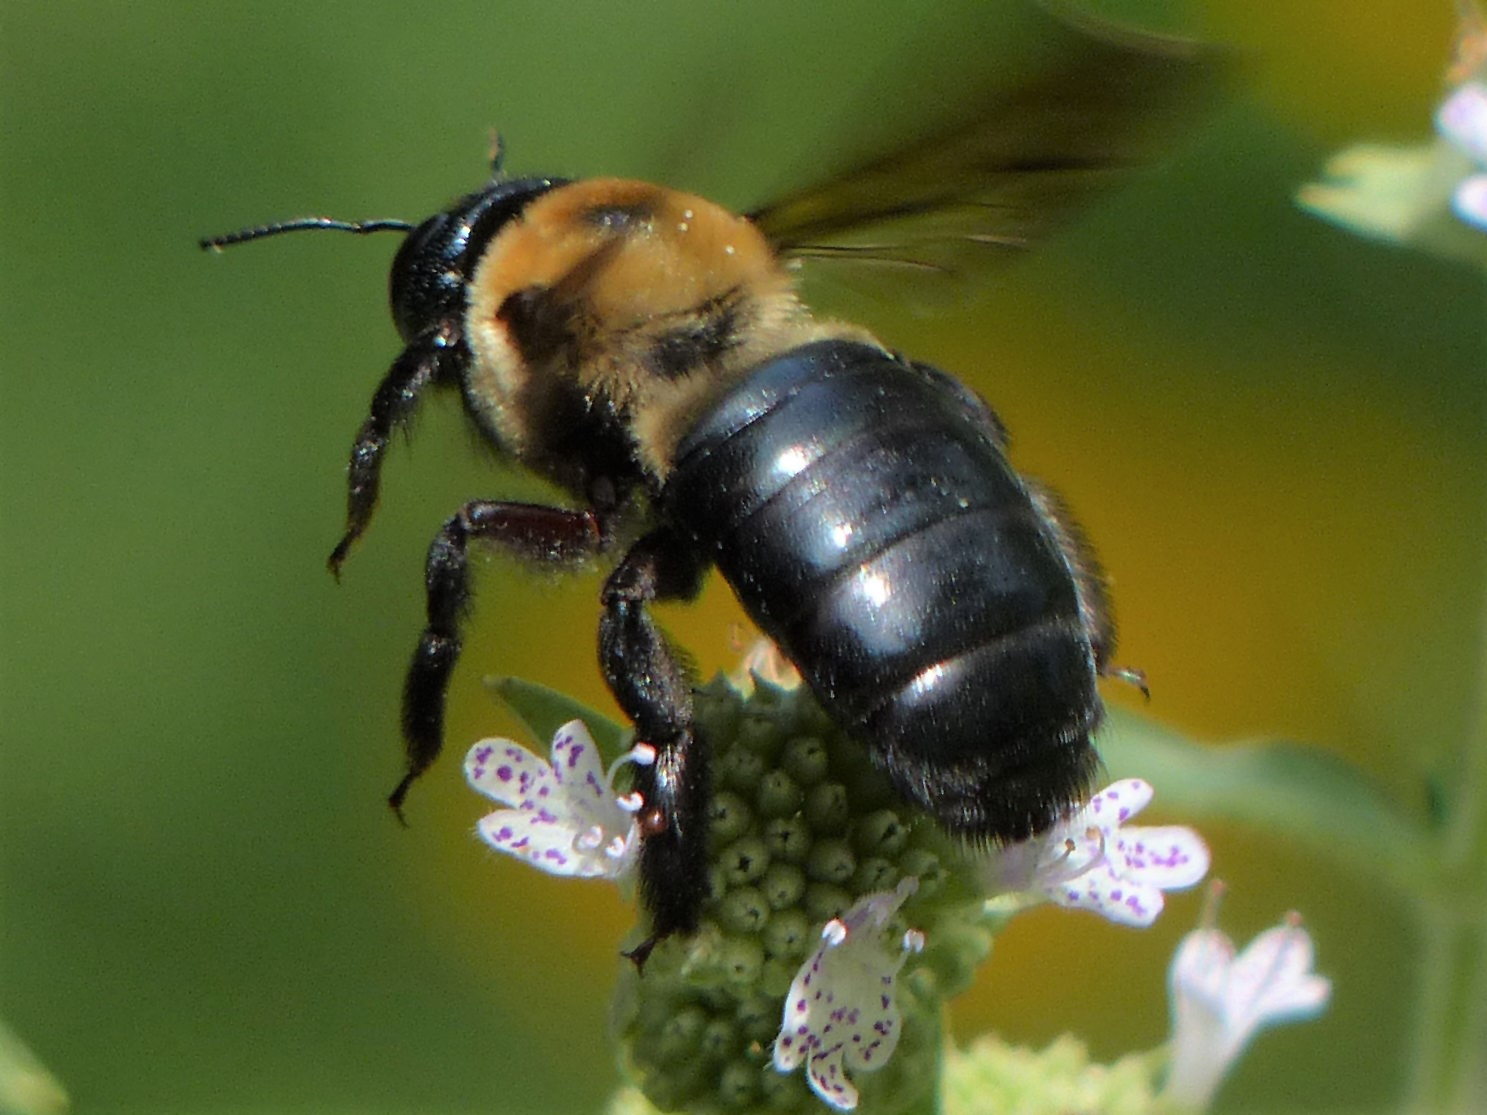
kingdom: Animalia
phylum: Arthropoda
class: Insecta
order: Hymenoptera
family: Apidae
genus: Xylocopa
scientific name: Xylocopa virginica
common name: Carpenter bee
